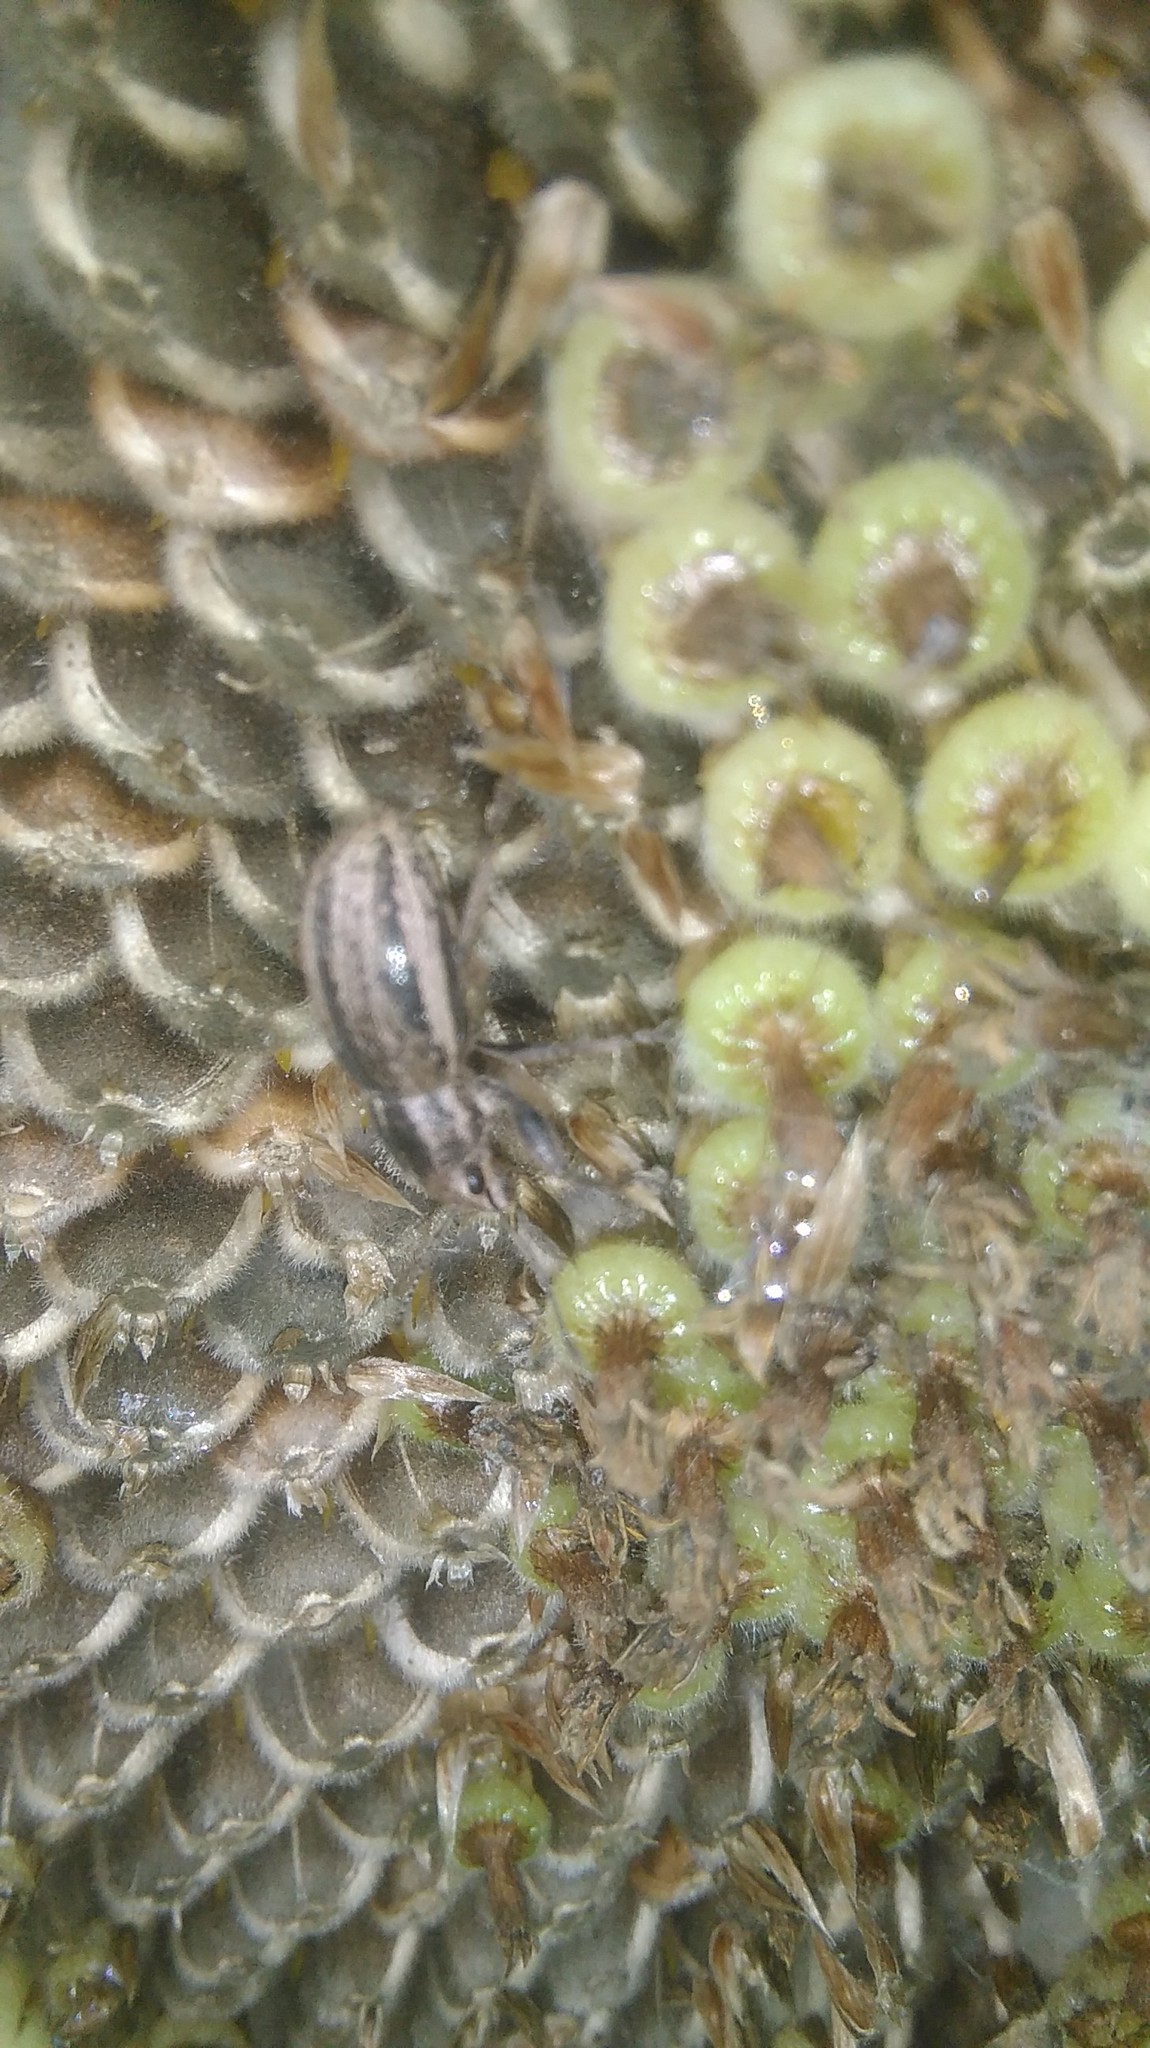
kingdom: Animalia
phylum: Arthropoda
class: Insecta
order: Coleoptera
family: Curculionidae
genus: Naupactus
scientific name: Naupactus leucoloma
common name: Whitefringed beetle
